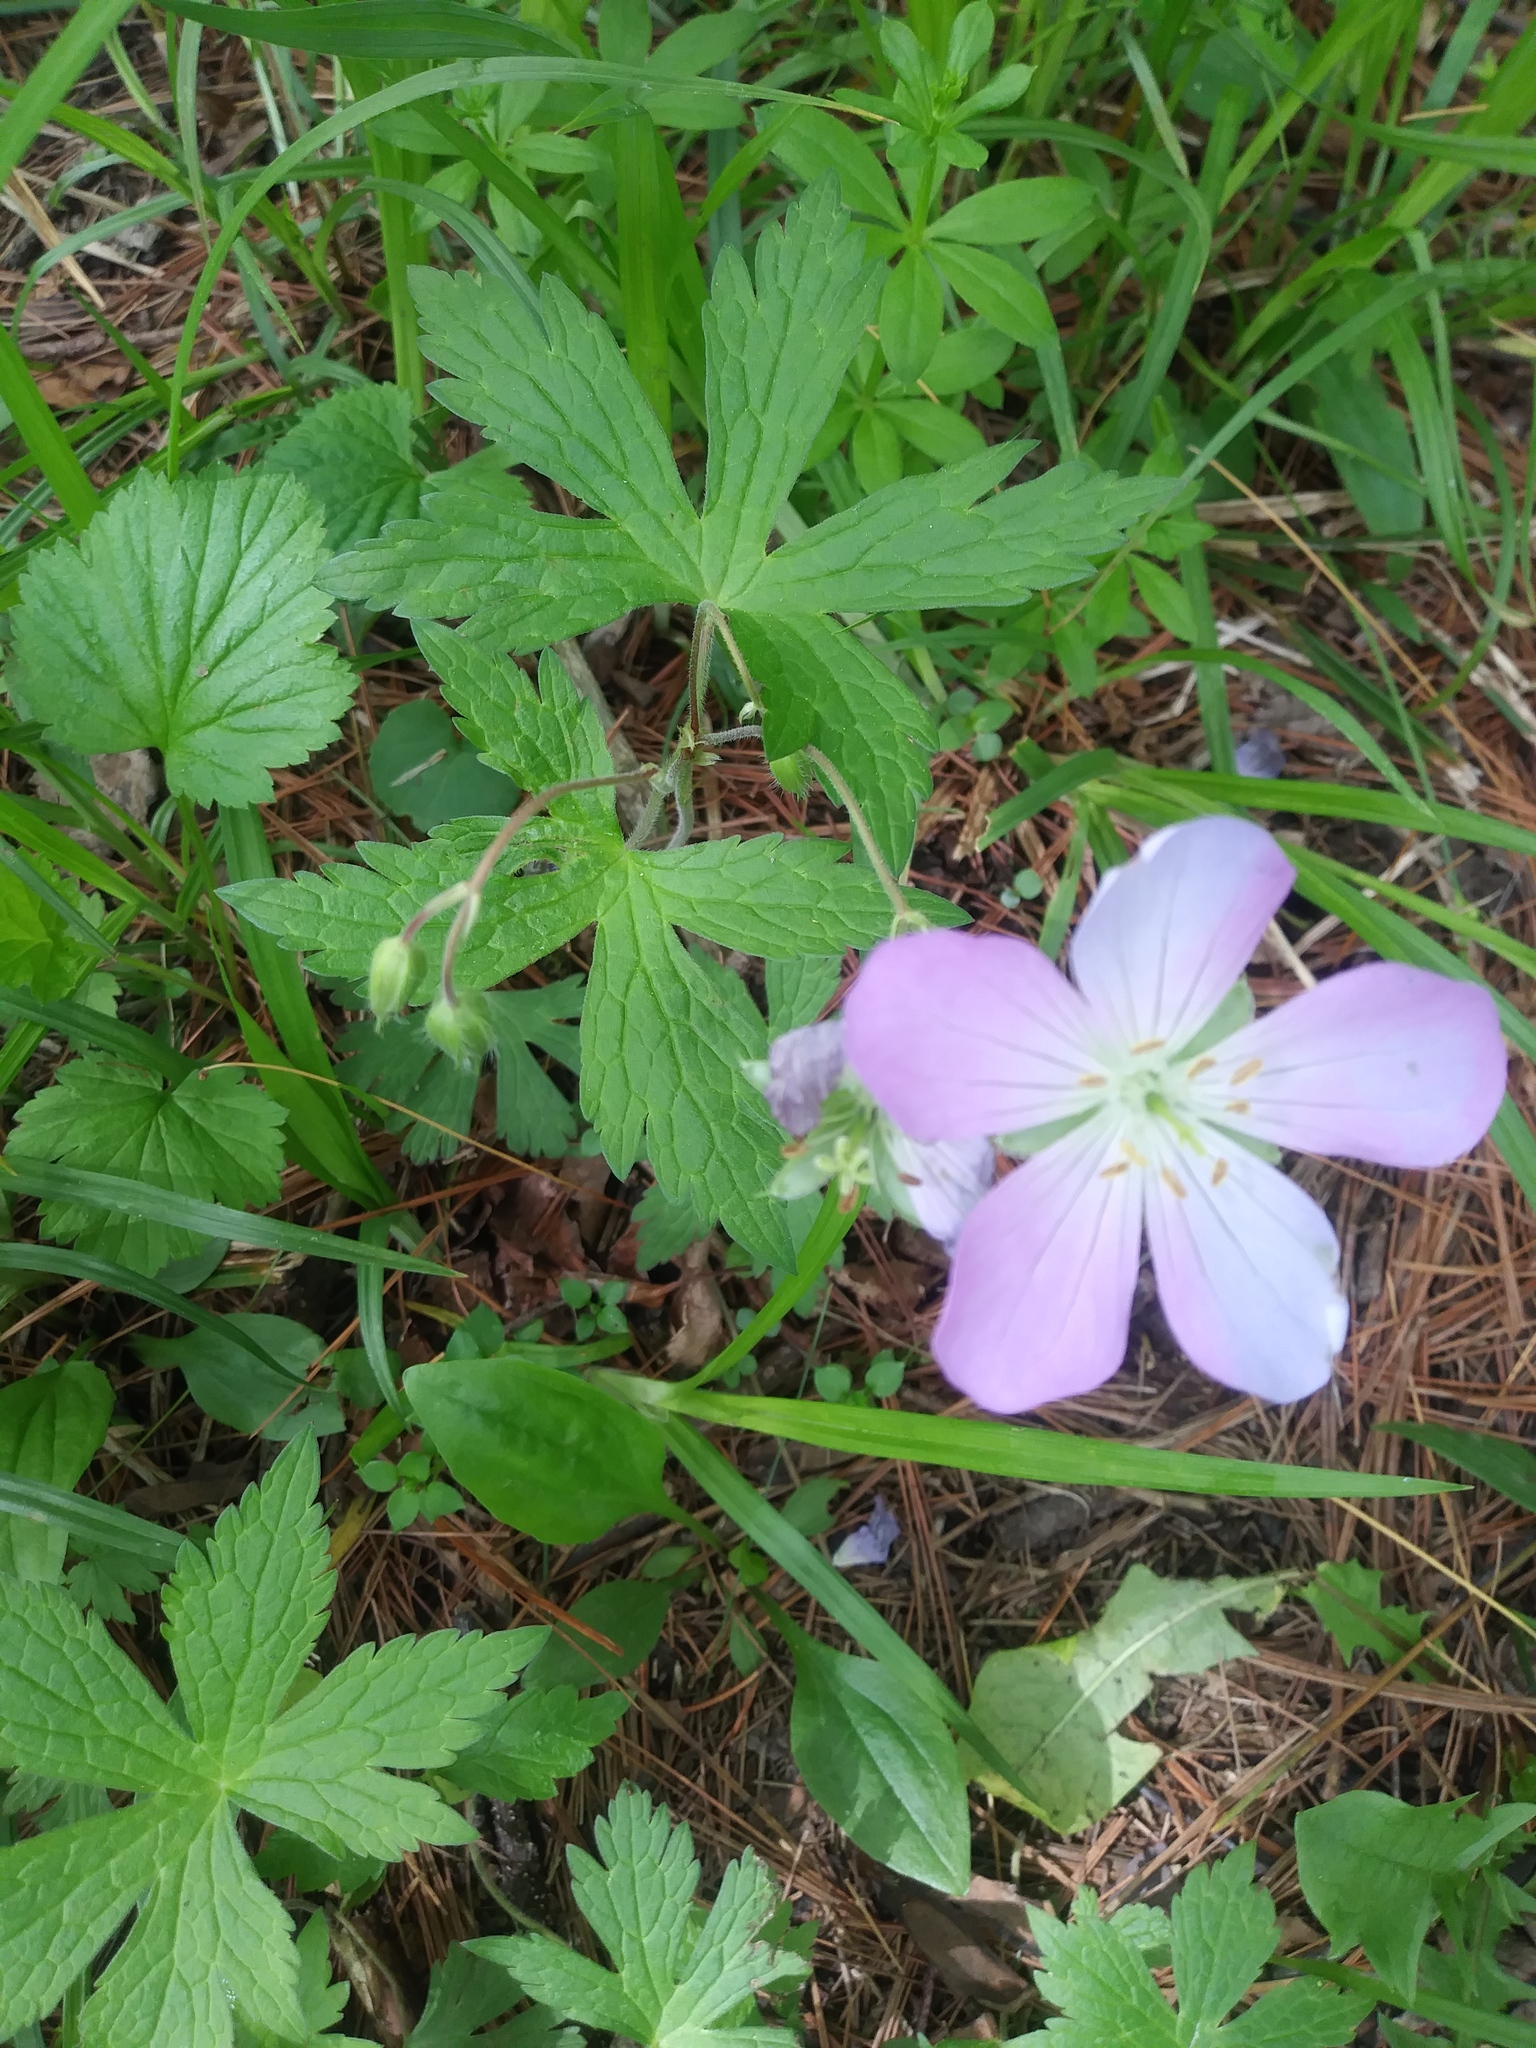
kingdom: Plantae
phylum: Tracheophyta
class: Magnoliopsida
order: Geraniales
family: Geraniaceae
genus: Geranium
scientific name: Geranium maculatum
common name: Spotted geranium
